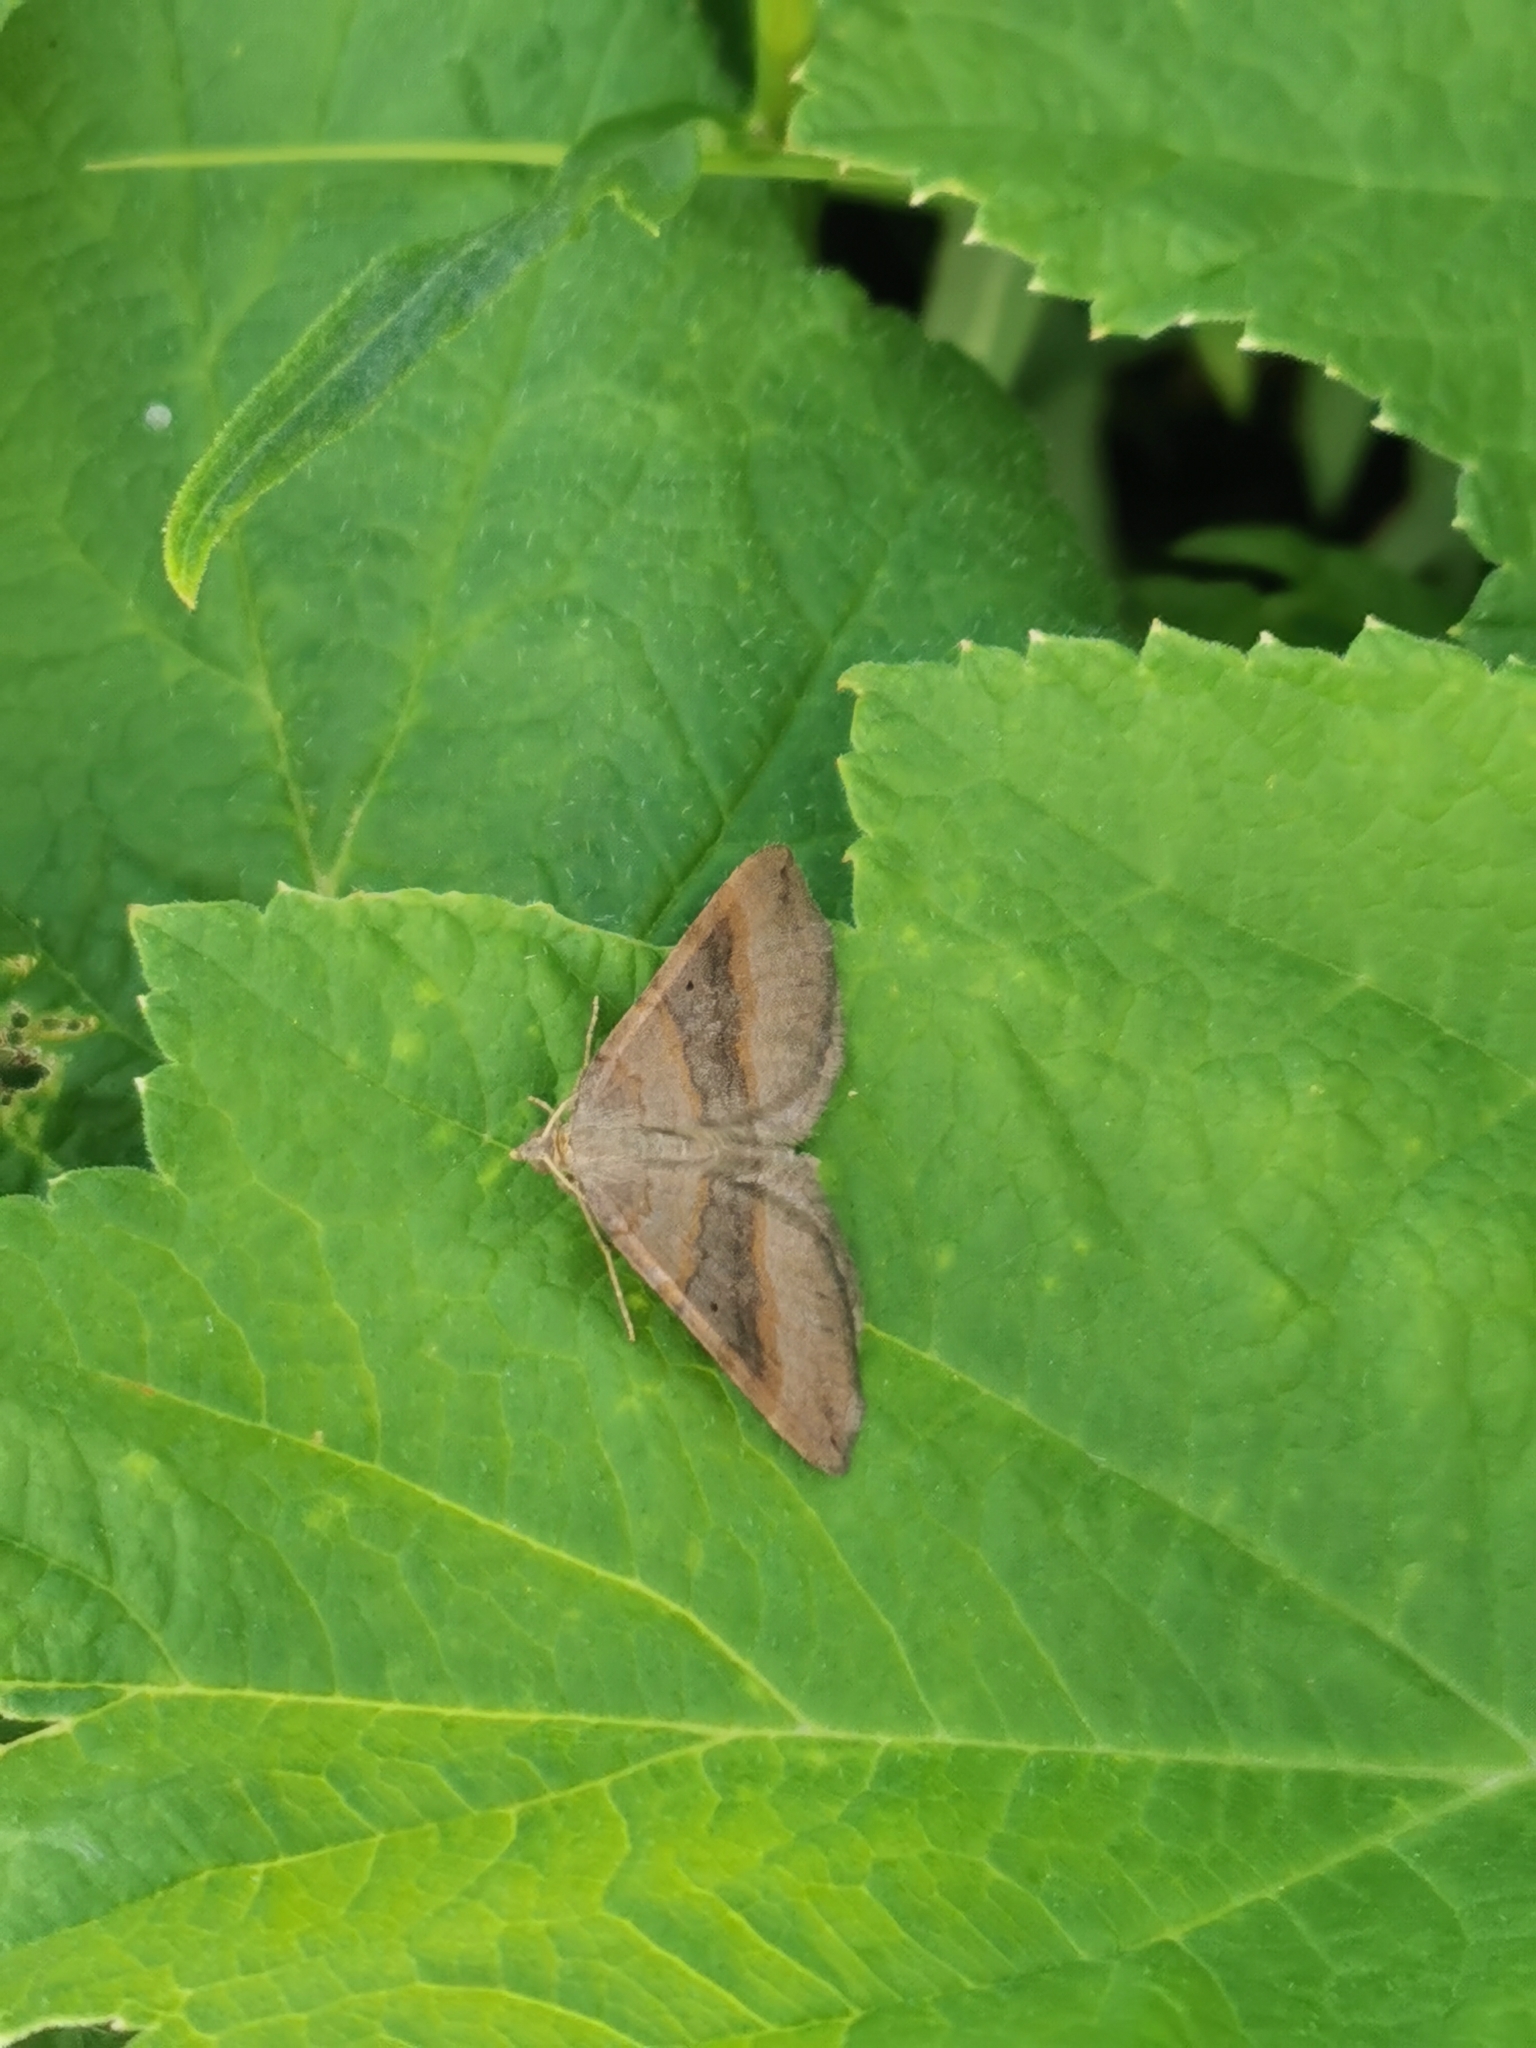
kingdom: Animalia
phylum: Arthropoda
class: Insecta
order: Lepidoptera
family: Geometridae
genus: Scotopteryx
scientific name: Scotopteryx chenopodiata
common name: Shaded broad-bar
